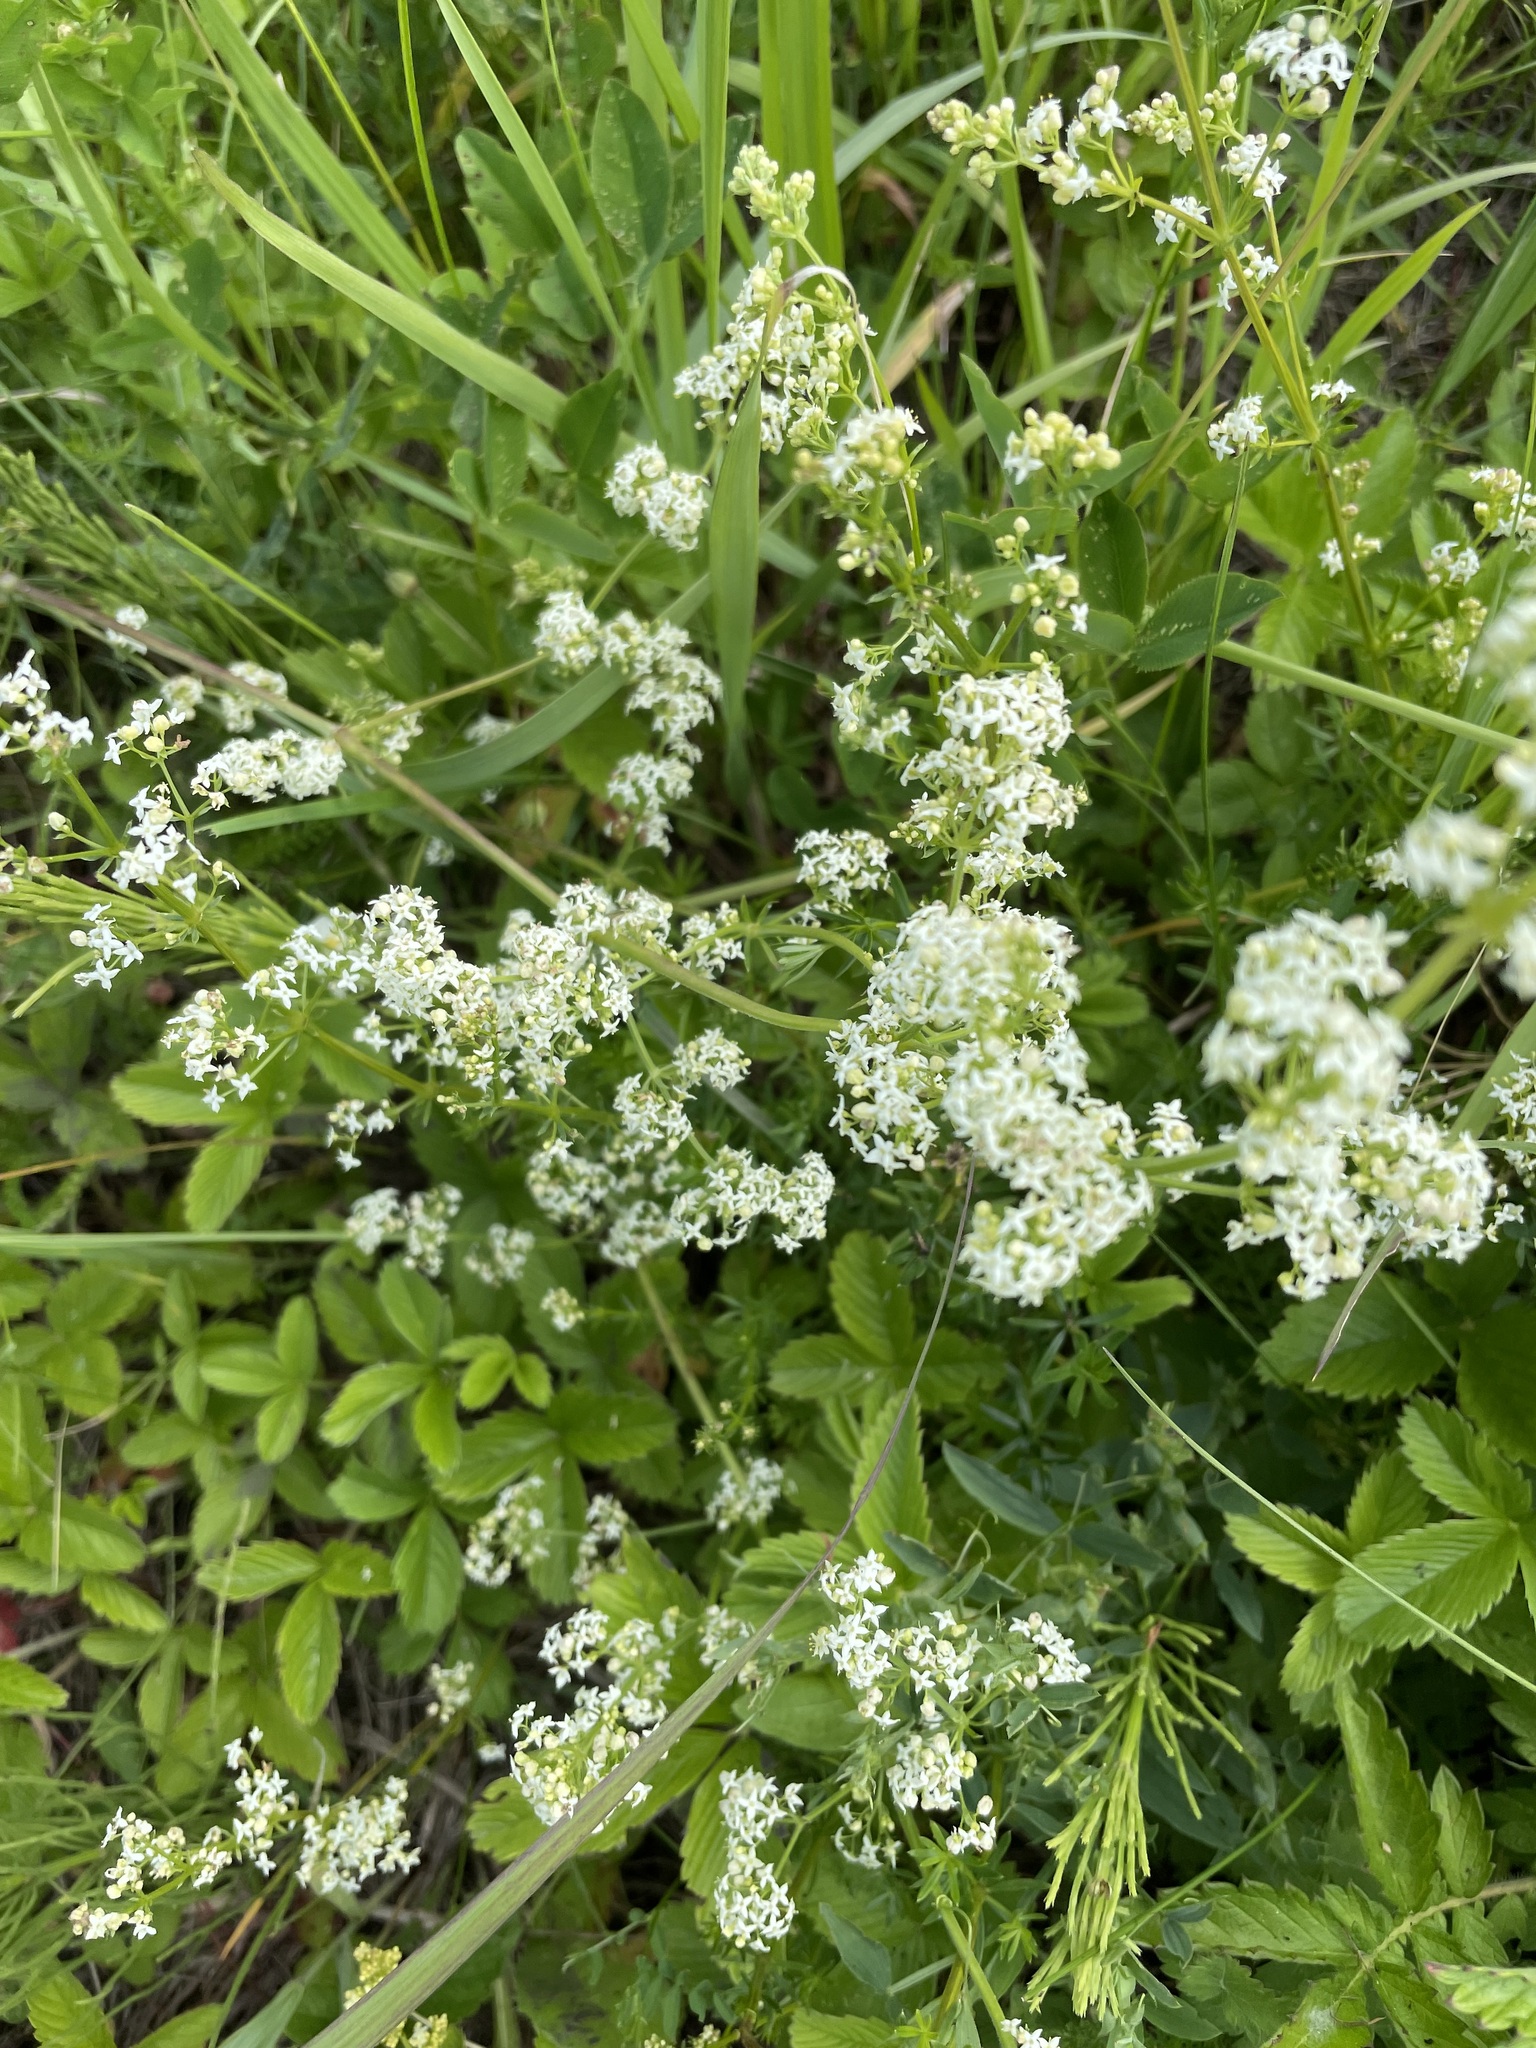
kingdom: Plantae
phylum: Tracheophyta
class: Magnoliopsida
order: Gentianales
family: Rubiaceae
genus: Galium
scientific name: Galium mollugo
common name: Hedge bedstraw
